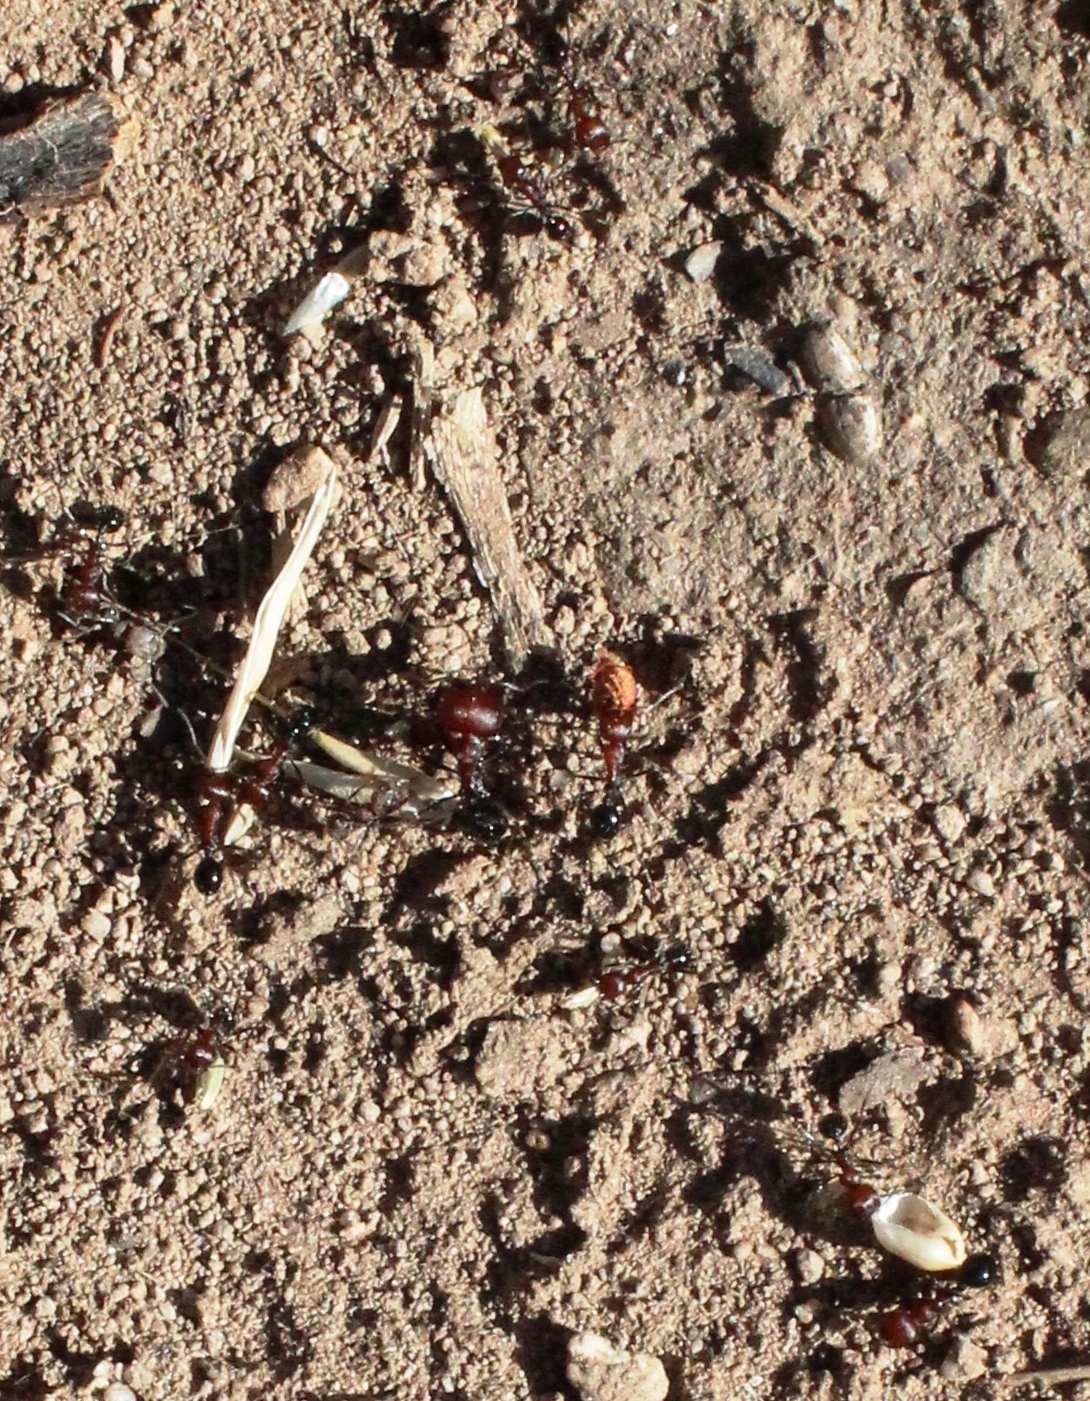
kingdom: Animalia
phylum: Arthropoda
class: Insecta
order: Hymenoptera
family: Formicidae
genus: Messor
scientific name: Messor capensis
